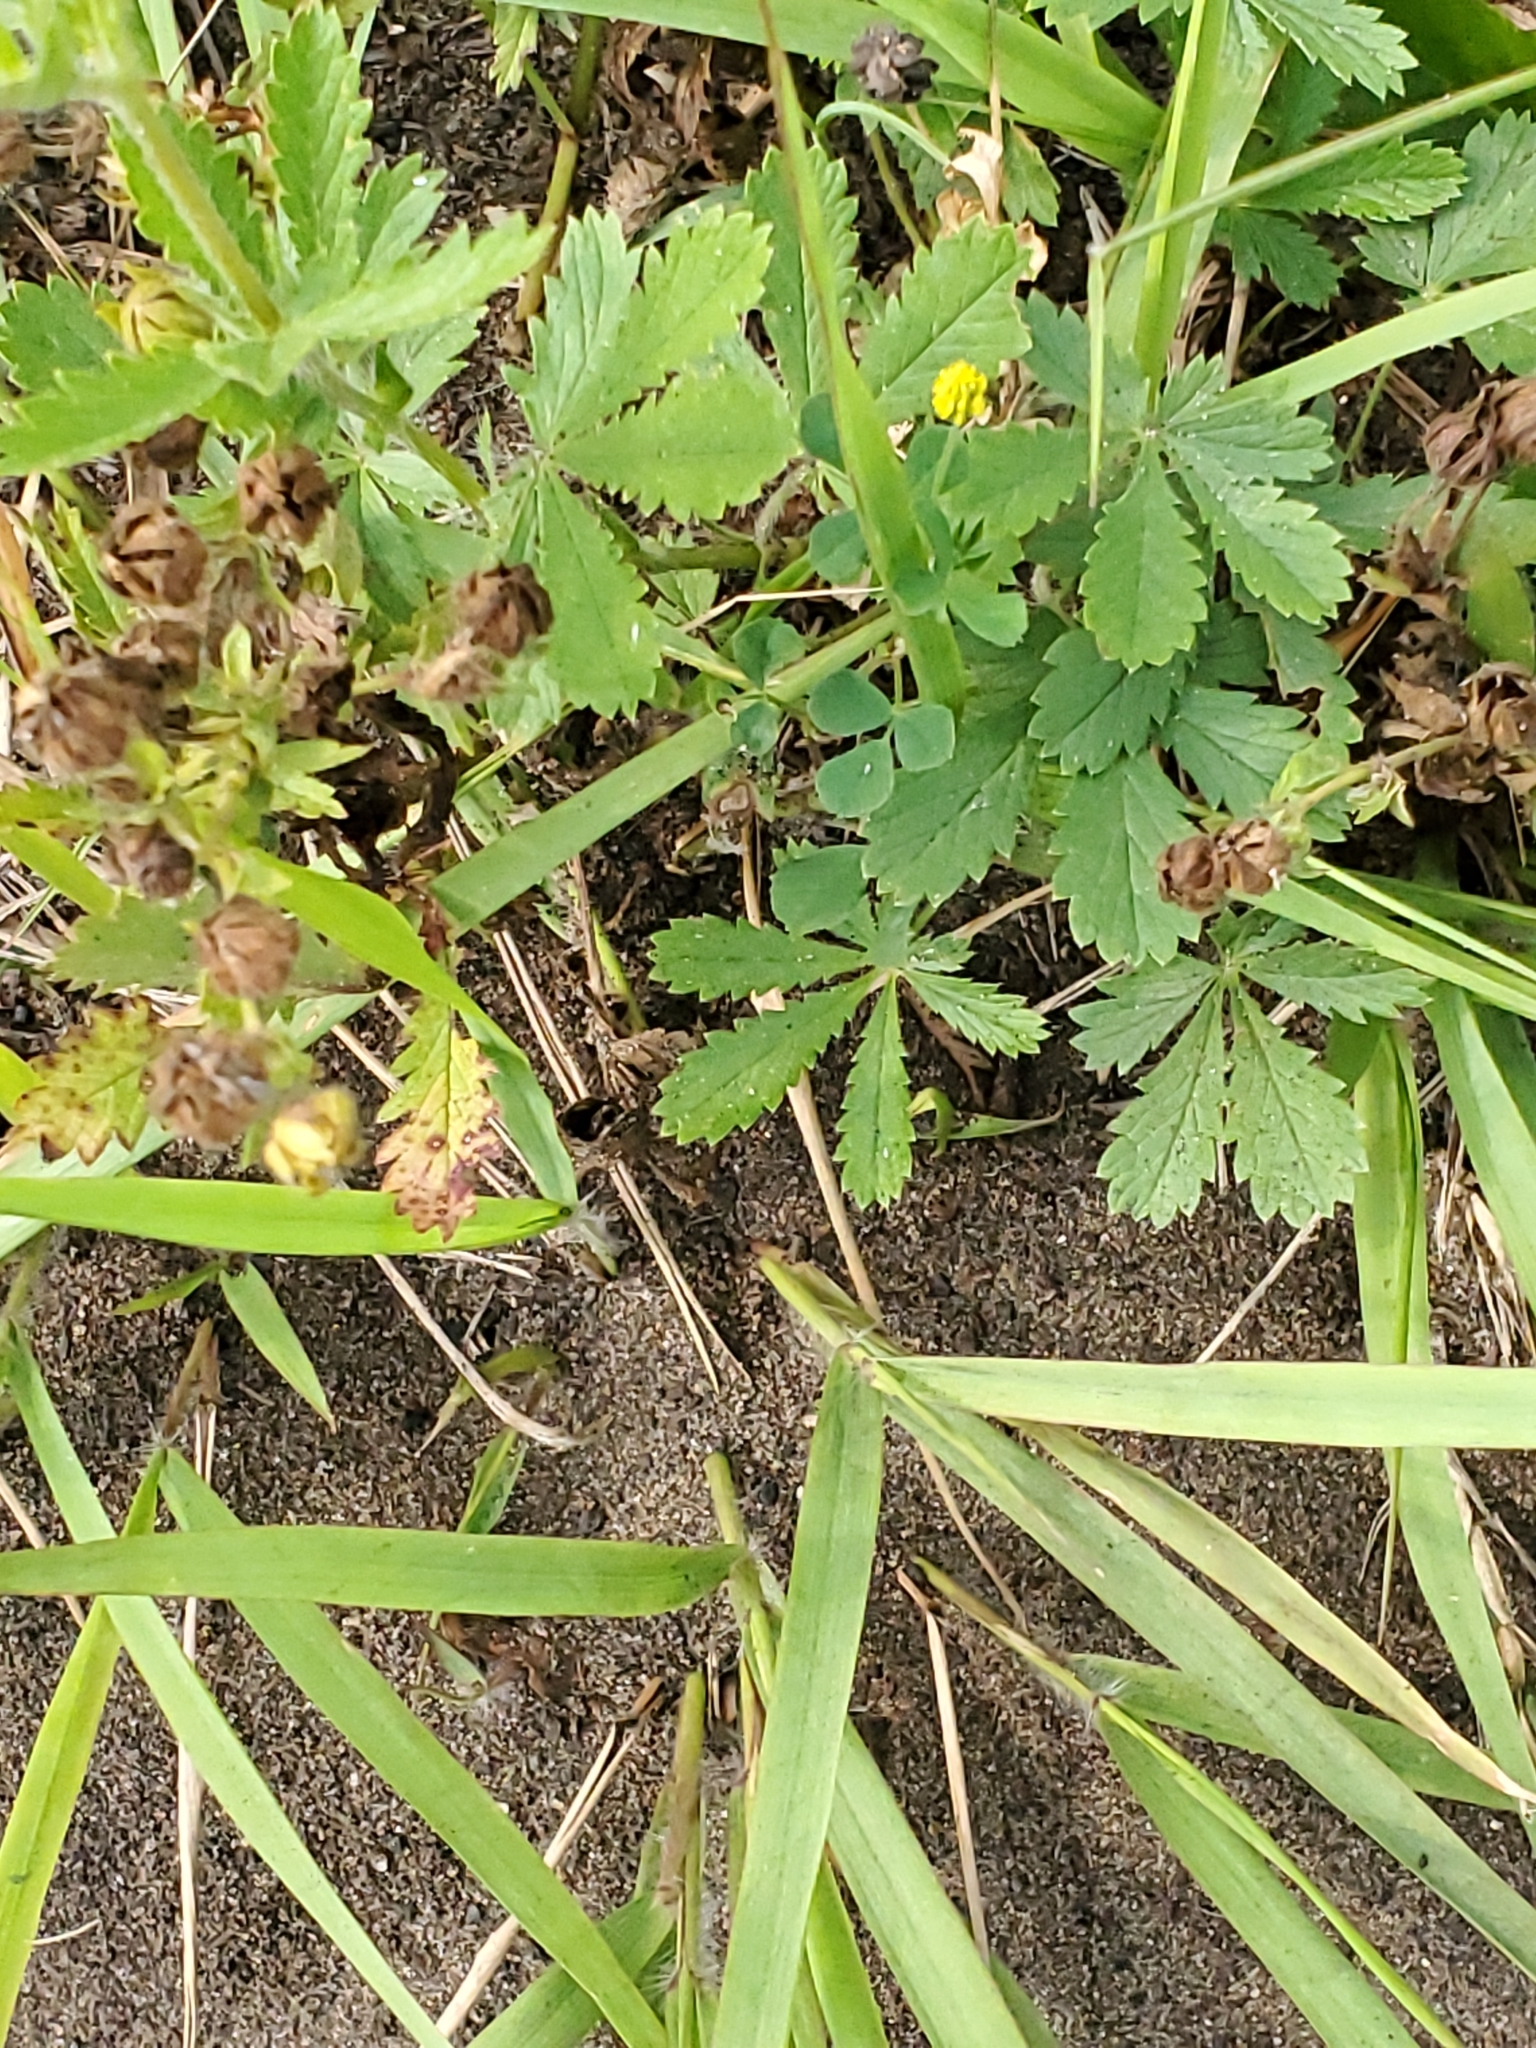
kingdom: Plantae
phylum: Tracheophyta
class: Magnoliopsida
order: Rosales
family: Rosaceae
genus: Potentilla
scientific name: Potentilla recta
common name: Sulphur cinquefoil
